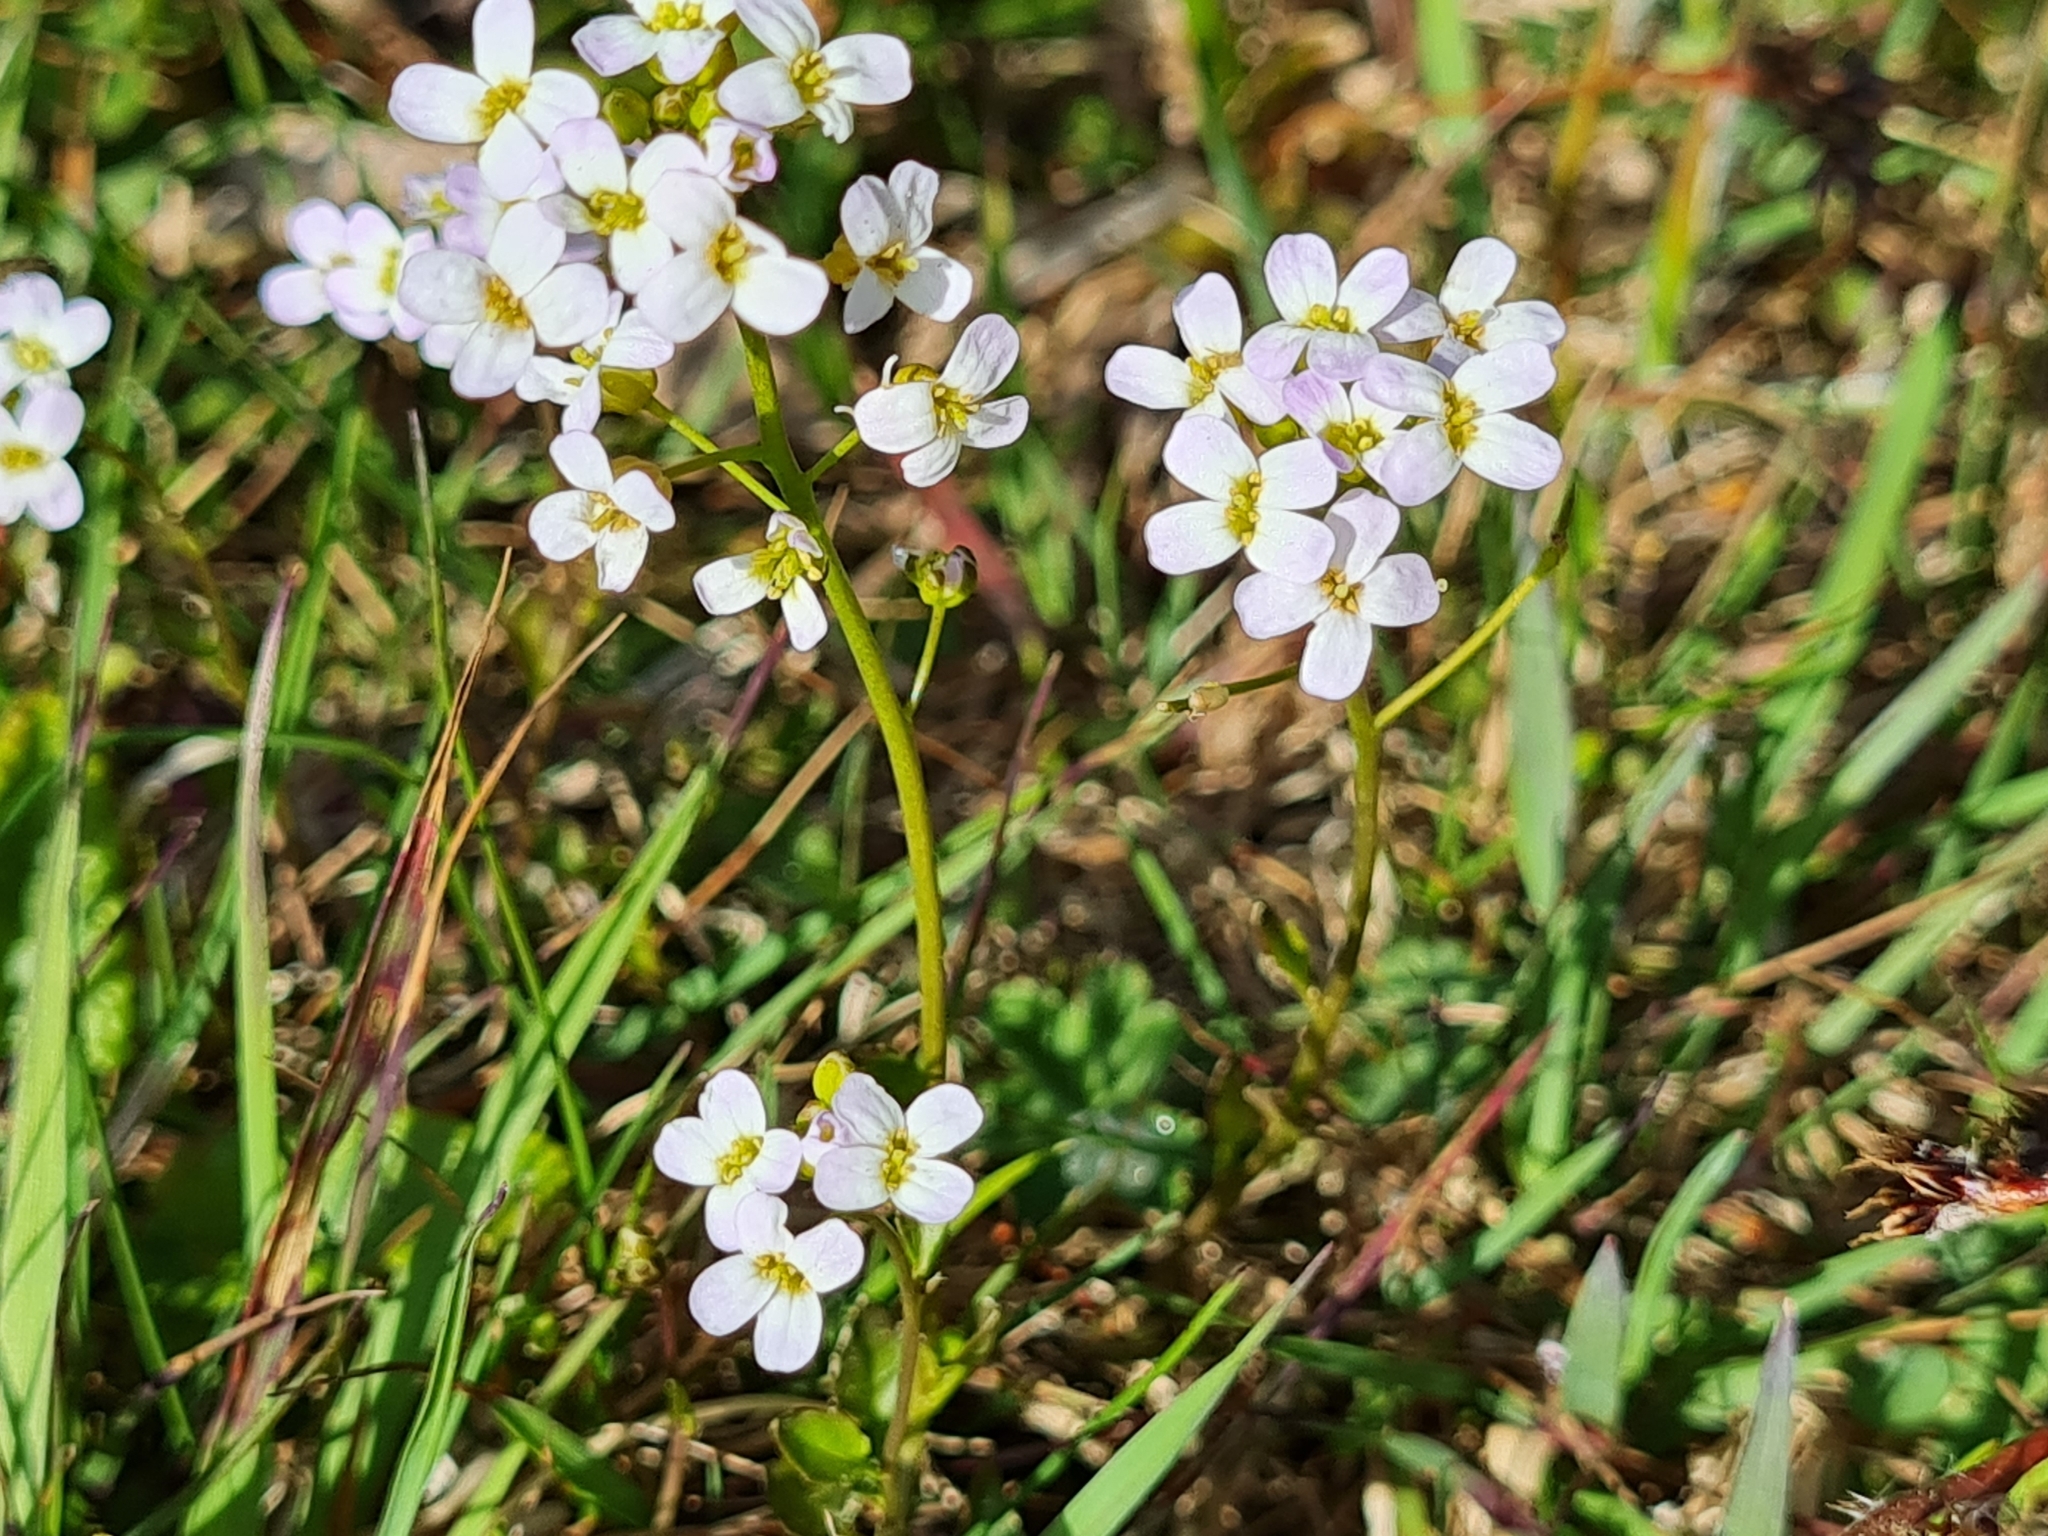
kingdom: Plantae
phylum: Tracheophyta
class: Magnoliopsida
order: Brassicales
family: Brassicaceae
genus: Cardamine
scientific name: Cardamine pratensis
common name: Cuckoo flower
